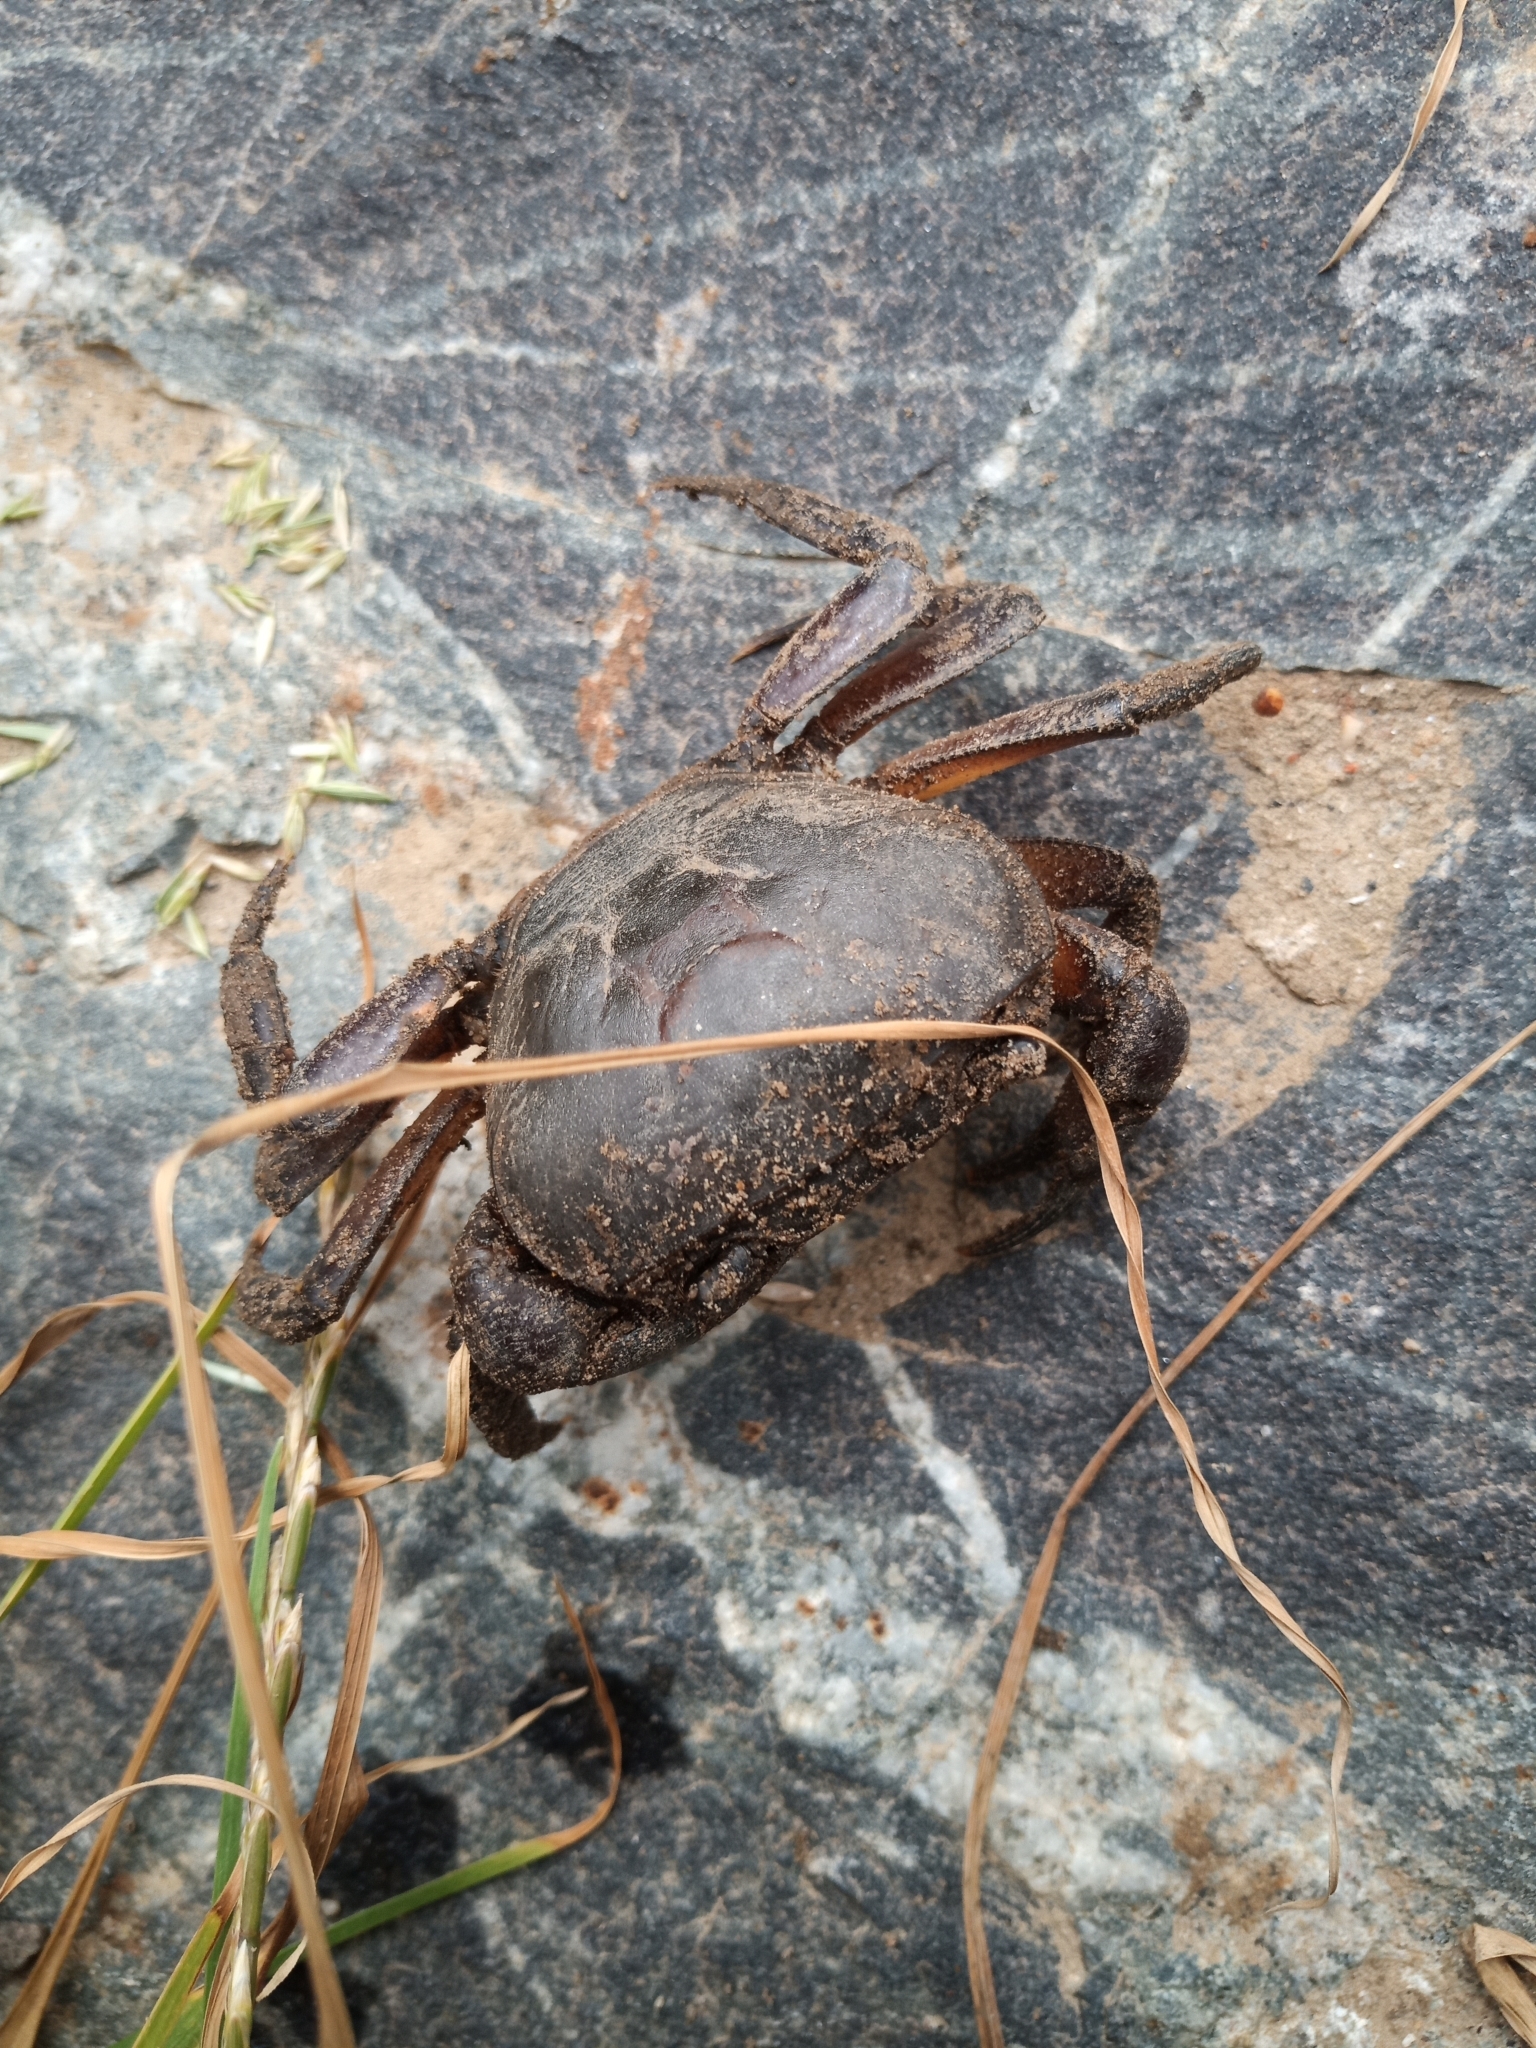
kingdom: Animalia
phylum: Arthropoda
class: Malacostraca
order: Decapoda
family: Potamonautidae
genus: Potamonautes
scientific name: Potamonautes perlatus
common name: Cape river crab
